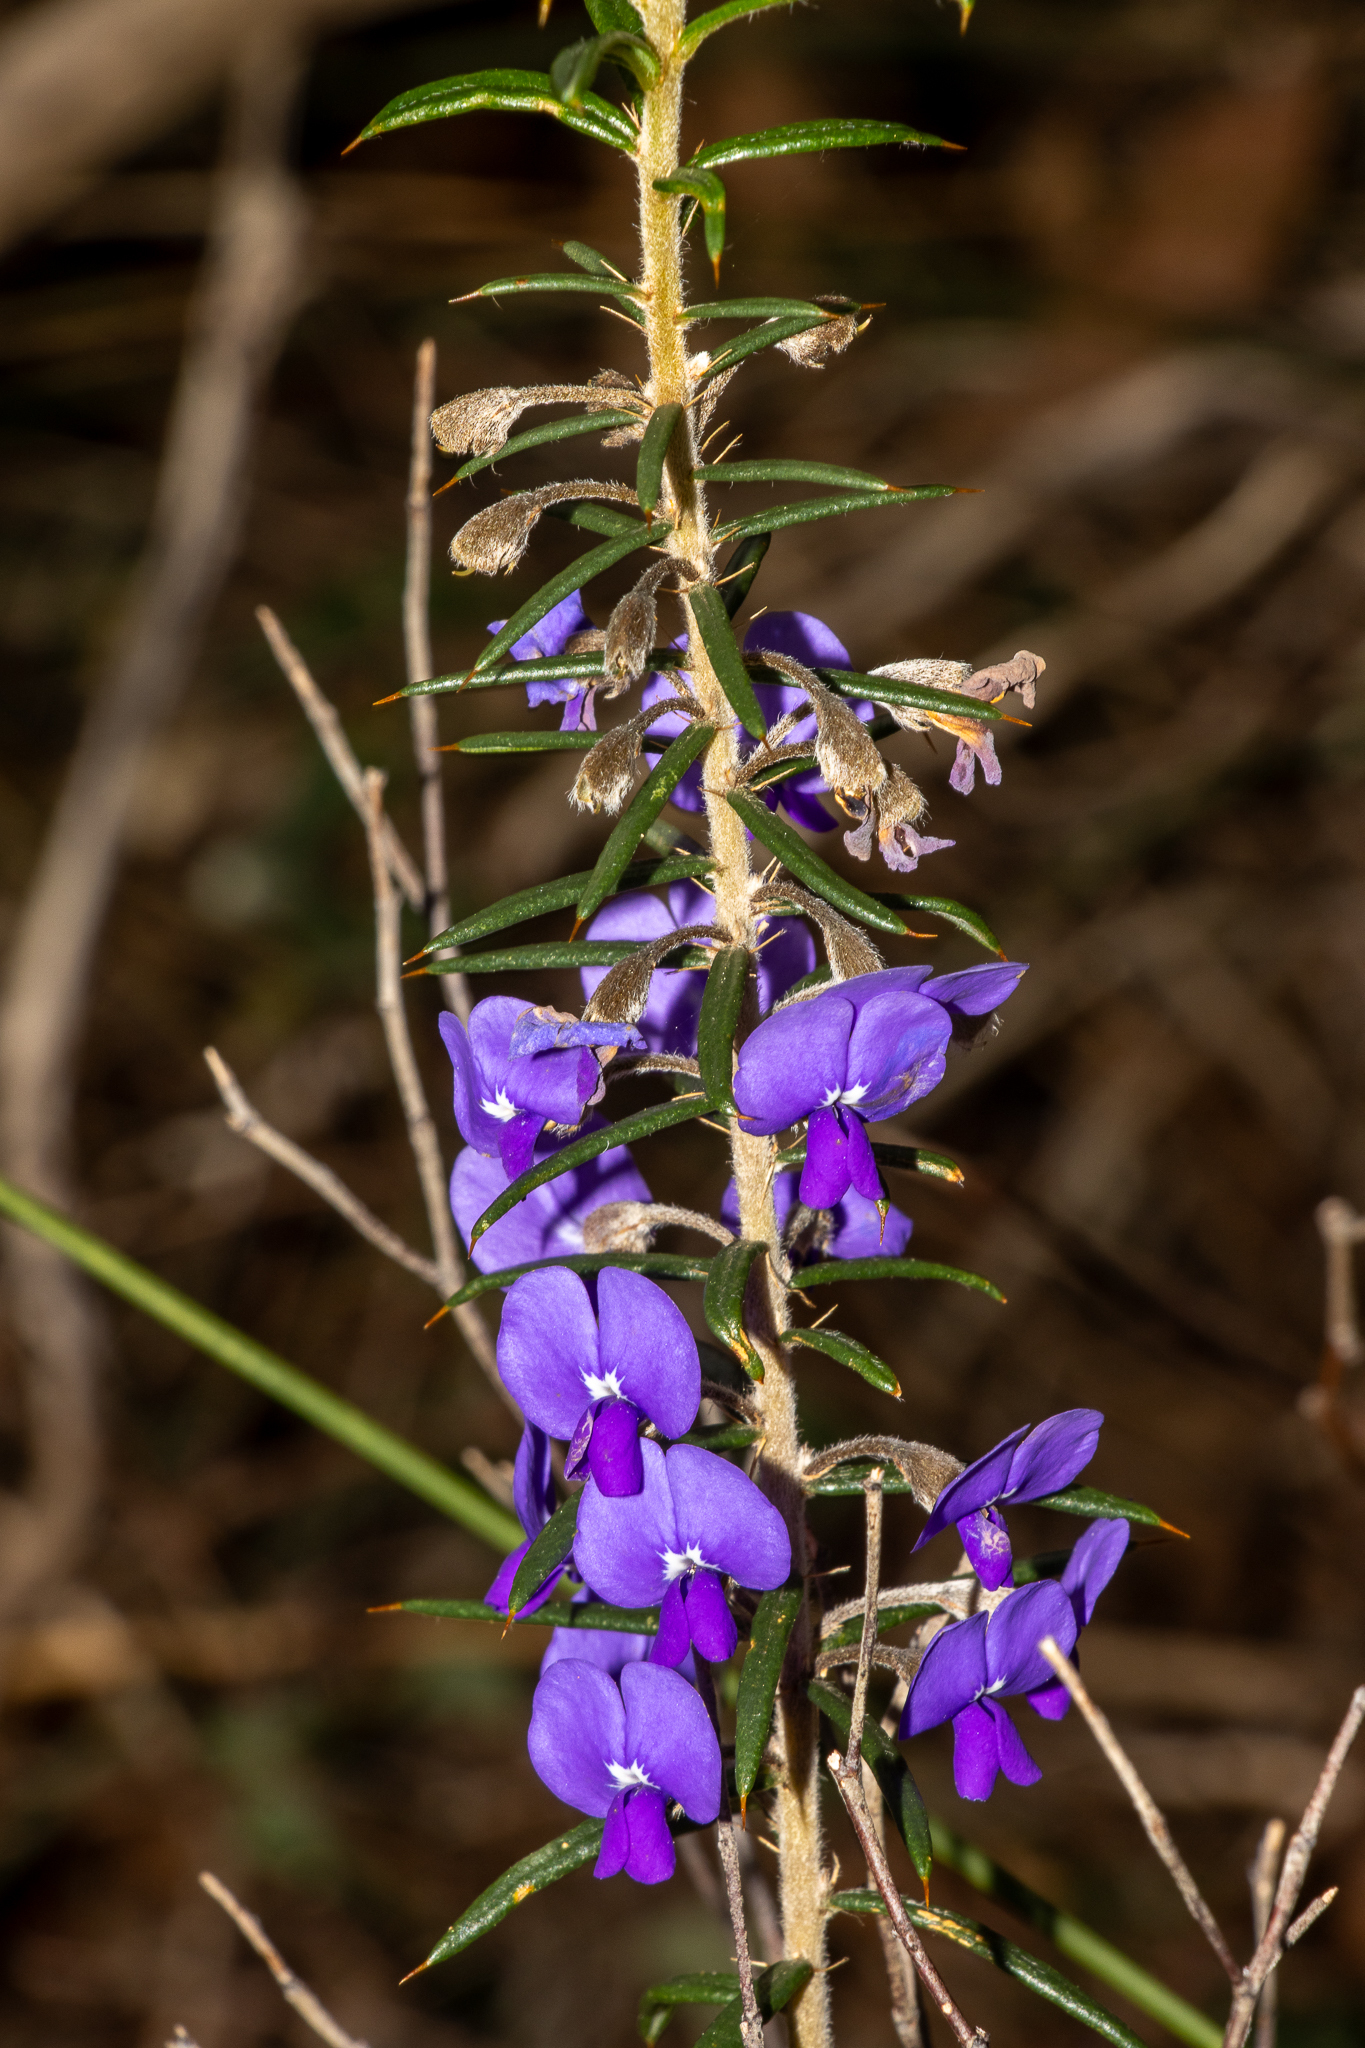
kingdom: Plantae
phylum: Tracheophyta
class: Magnoliopsida
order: Fabales
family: Fabaceae
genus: Hovea
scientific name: Hovea pungens
